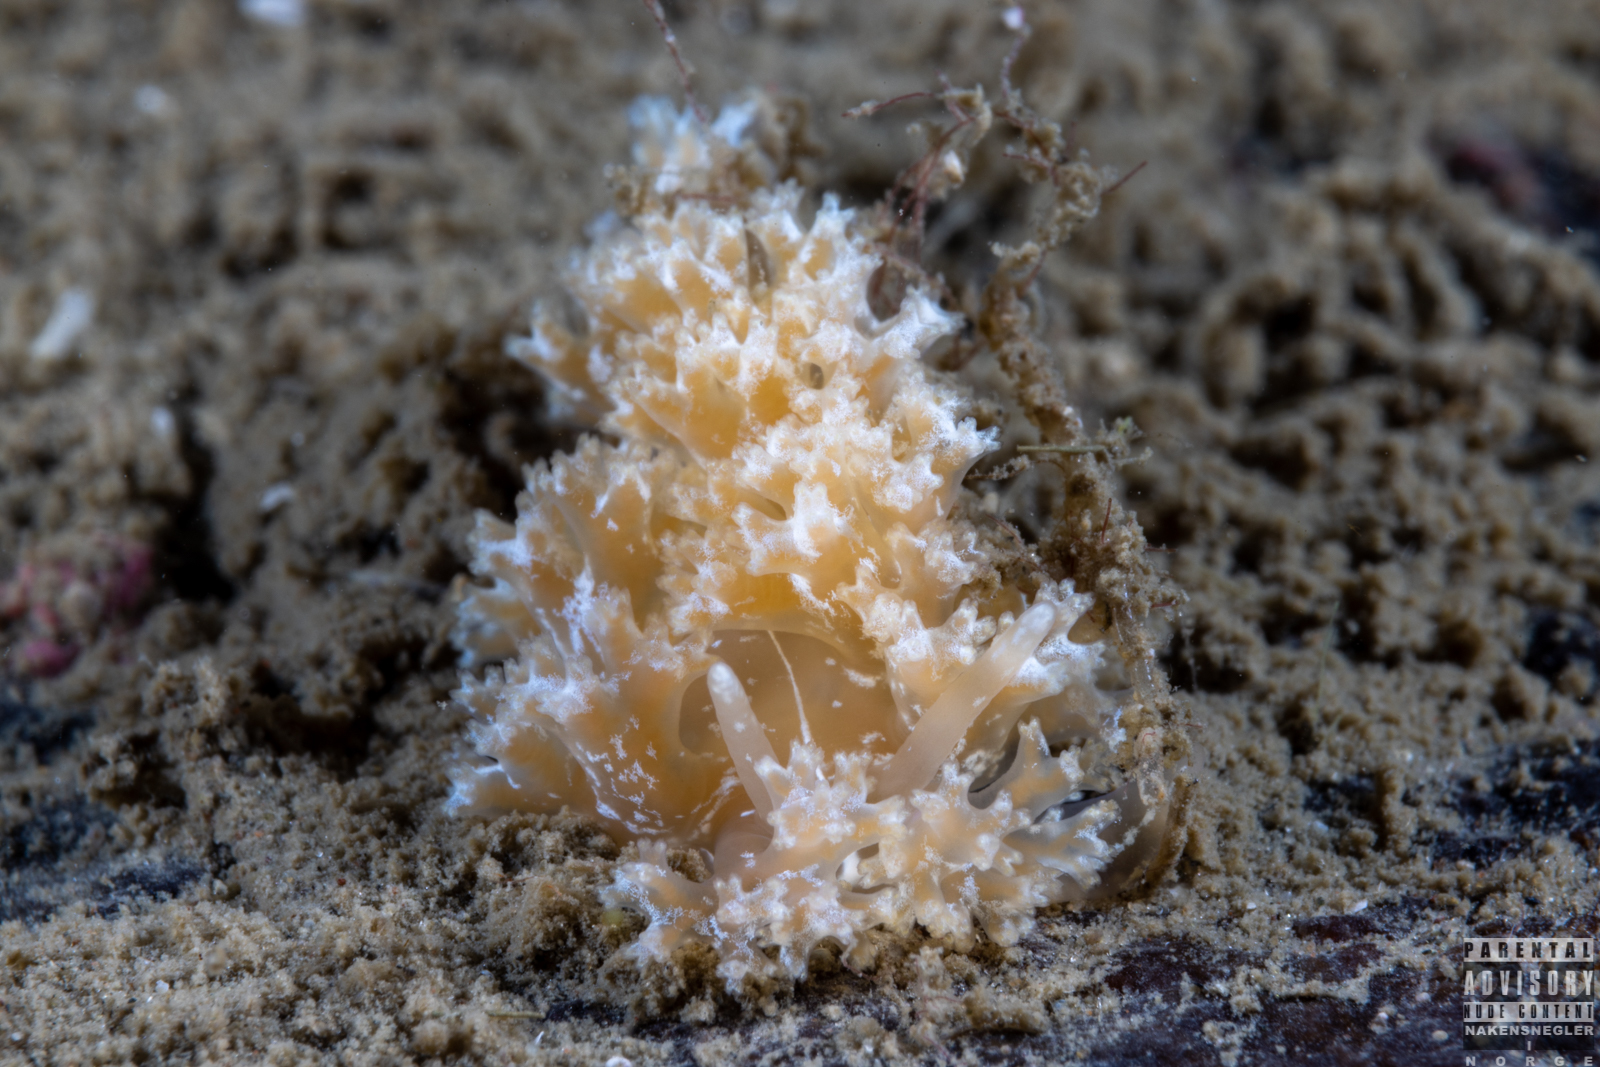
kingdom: Animalia
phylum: Mollusca
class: Gastropoda
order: Nudibranchia
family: Heroidae
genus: Hero
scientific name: Hero formosa
